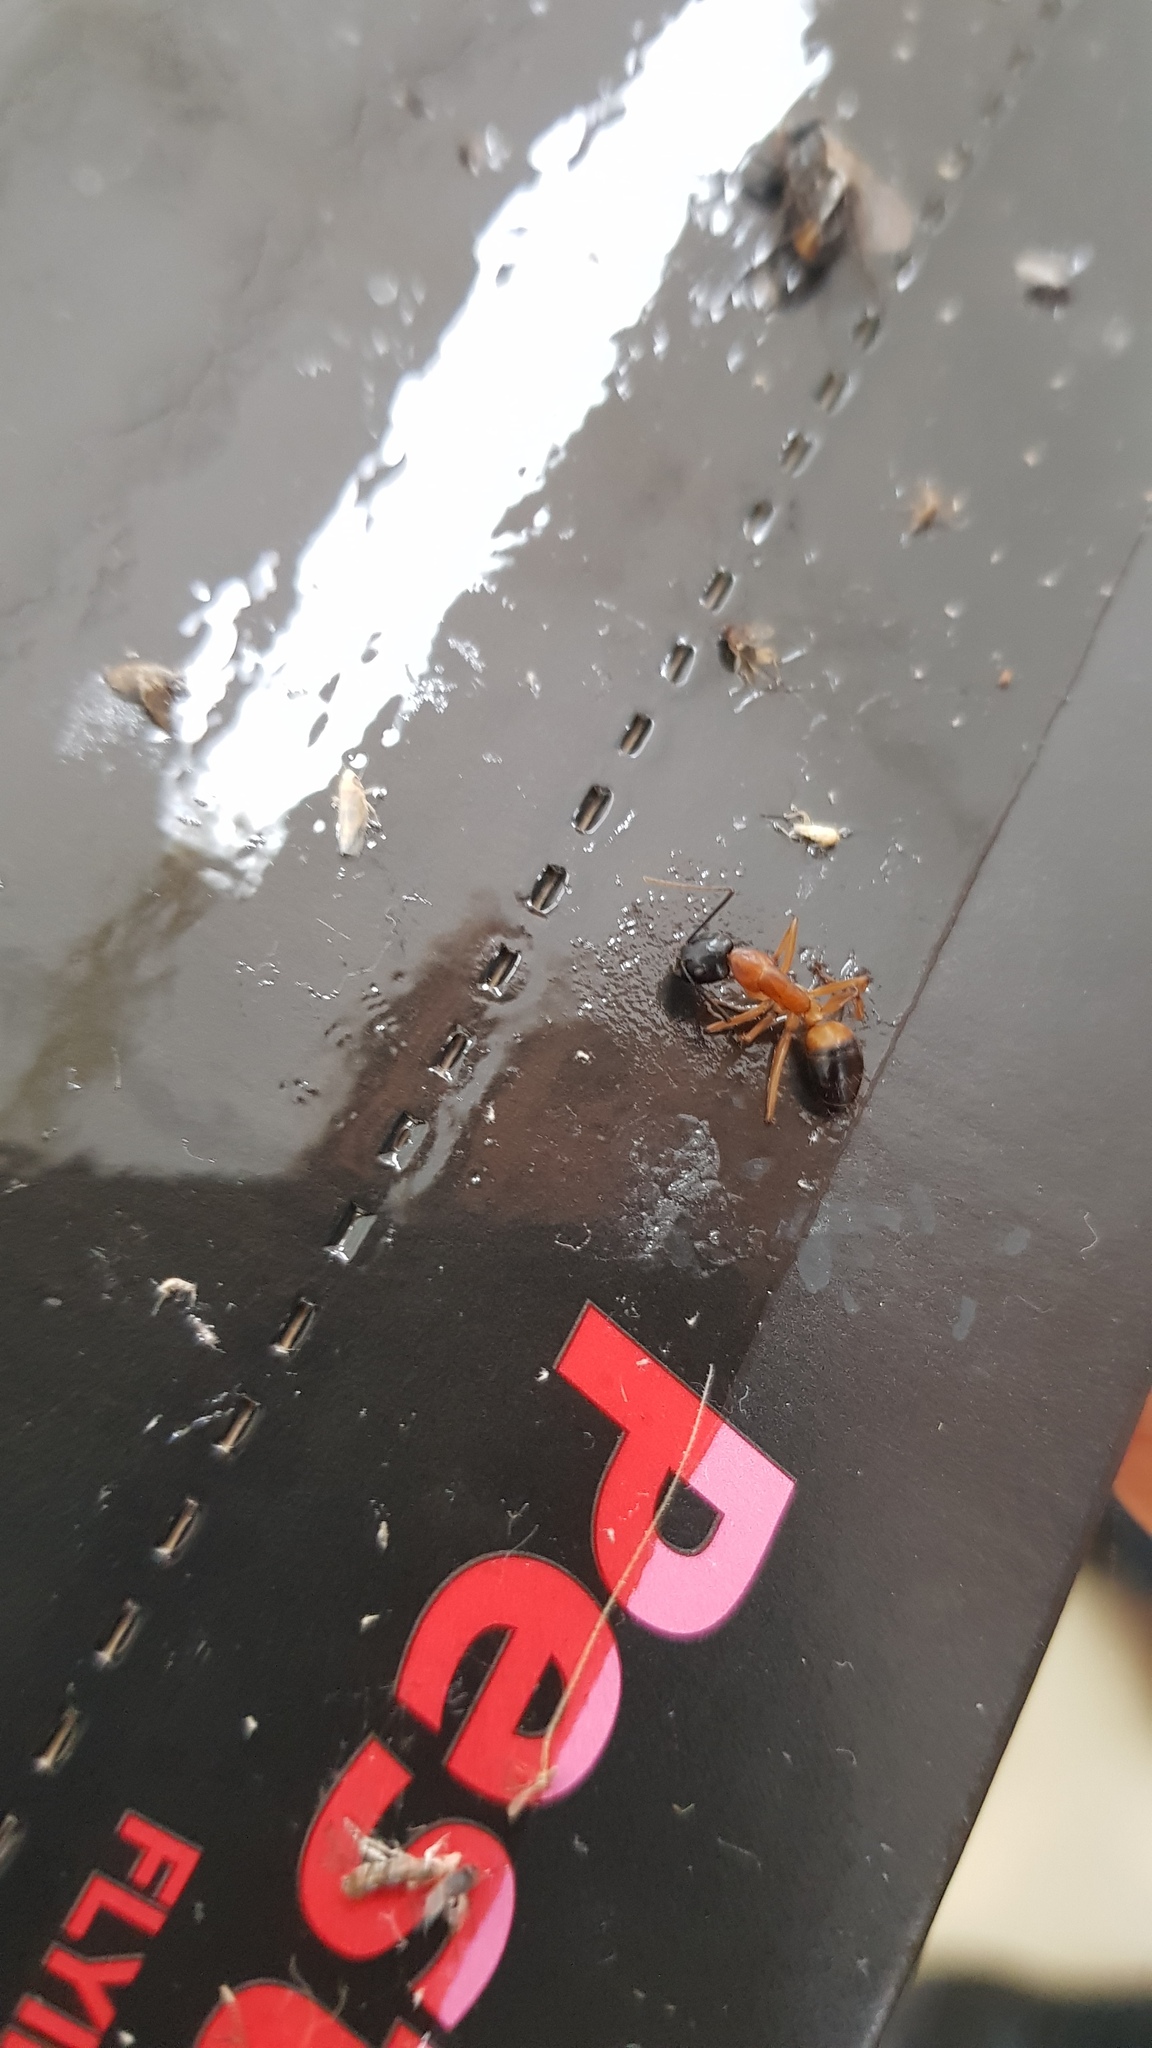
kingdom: Animalia
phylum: Arthropoda
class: Insecta
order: Hymenoptera
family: Formicidae
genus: Camponotus
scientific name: Camponotus consobrinus
